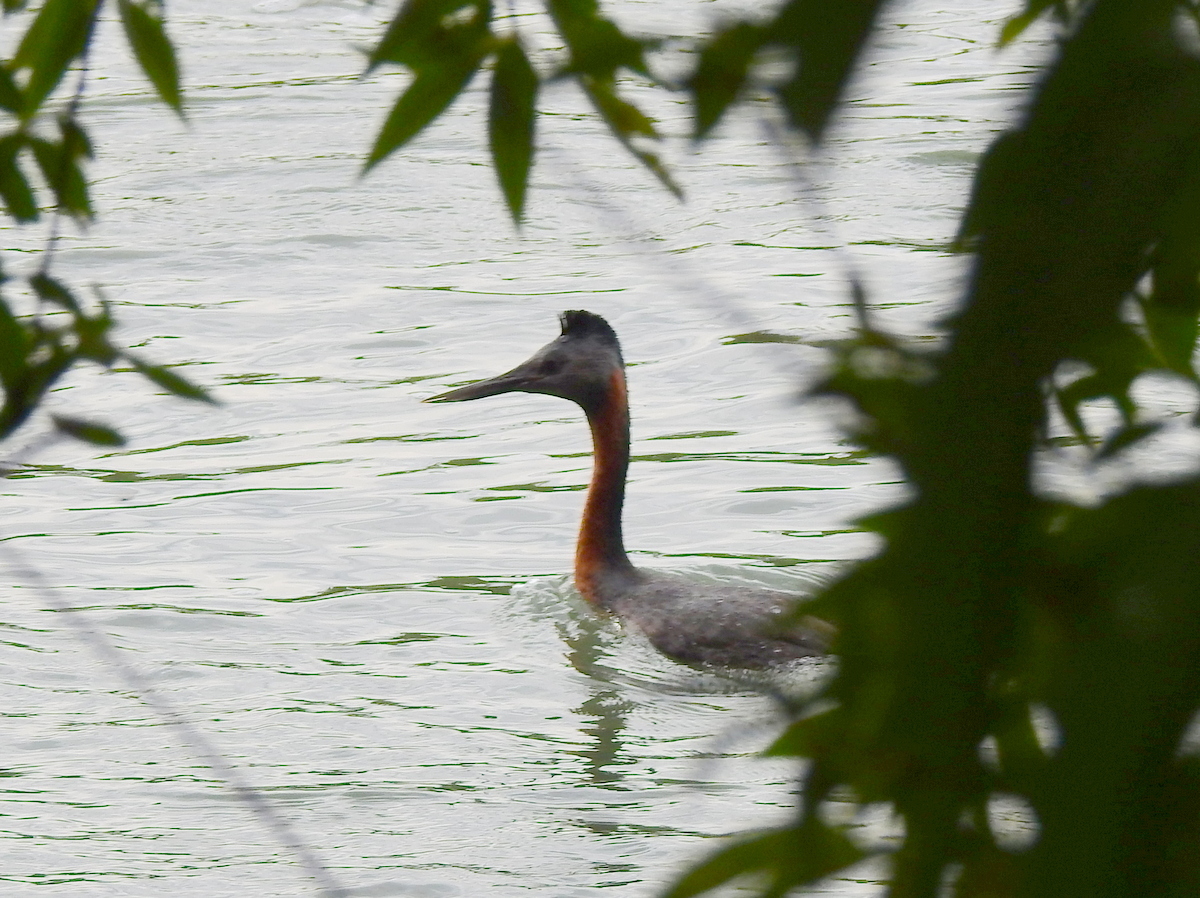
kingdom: Animalia
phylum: Chordata
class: Aves
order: Podicipediformes
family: Podicipedidae
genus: Podiceps
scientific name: Podiceps major
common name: Great grebe
